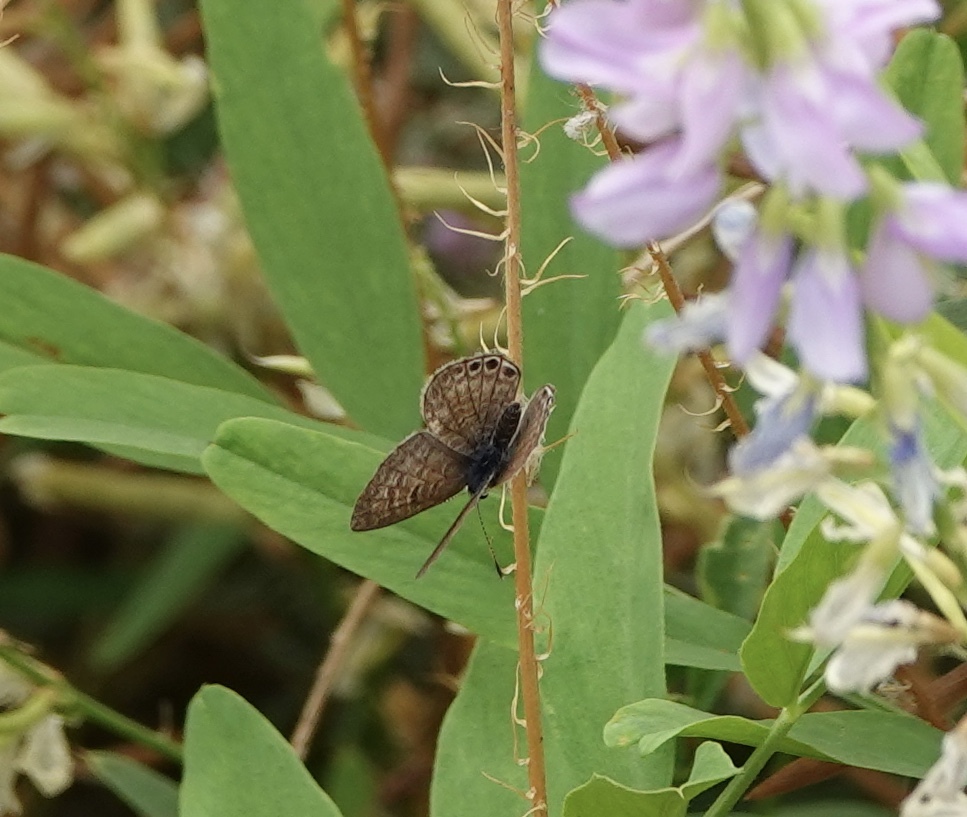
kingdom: Animalia
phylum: Arthropoda
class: Insecta
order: Lepidoptera
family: Lycaenidae
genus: Leptotes
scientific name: Leptotes trigemmatus
